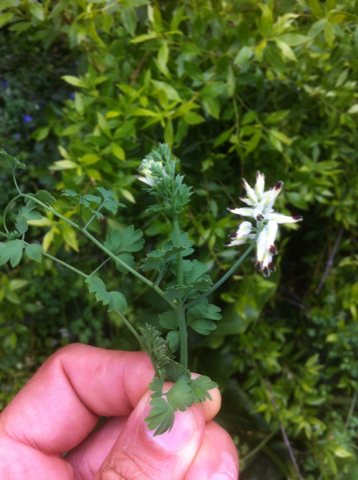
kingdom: Plantae
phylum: Tracheophyta
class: Magnoliopsida
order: Ranunculales
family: Papaveraceae
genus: Fumaria
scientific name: Fumaria capreolata
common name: White ramping-fumitory
